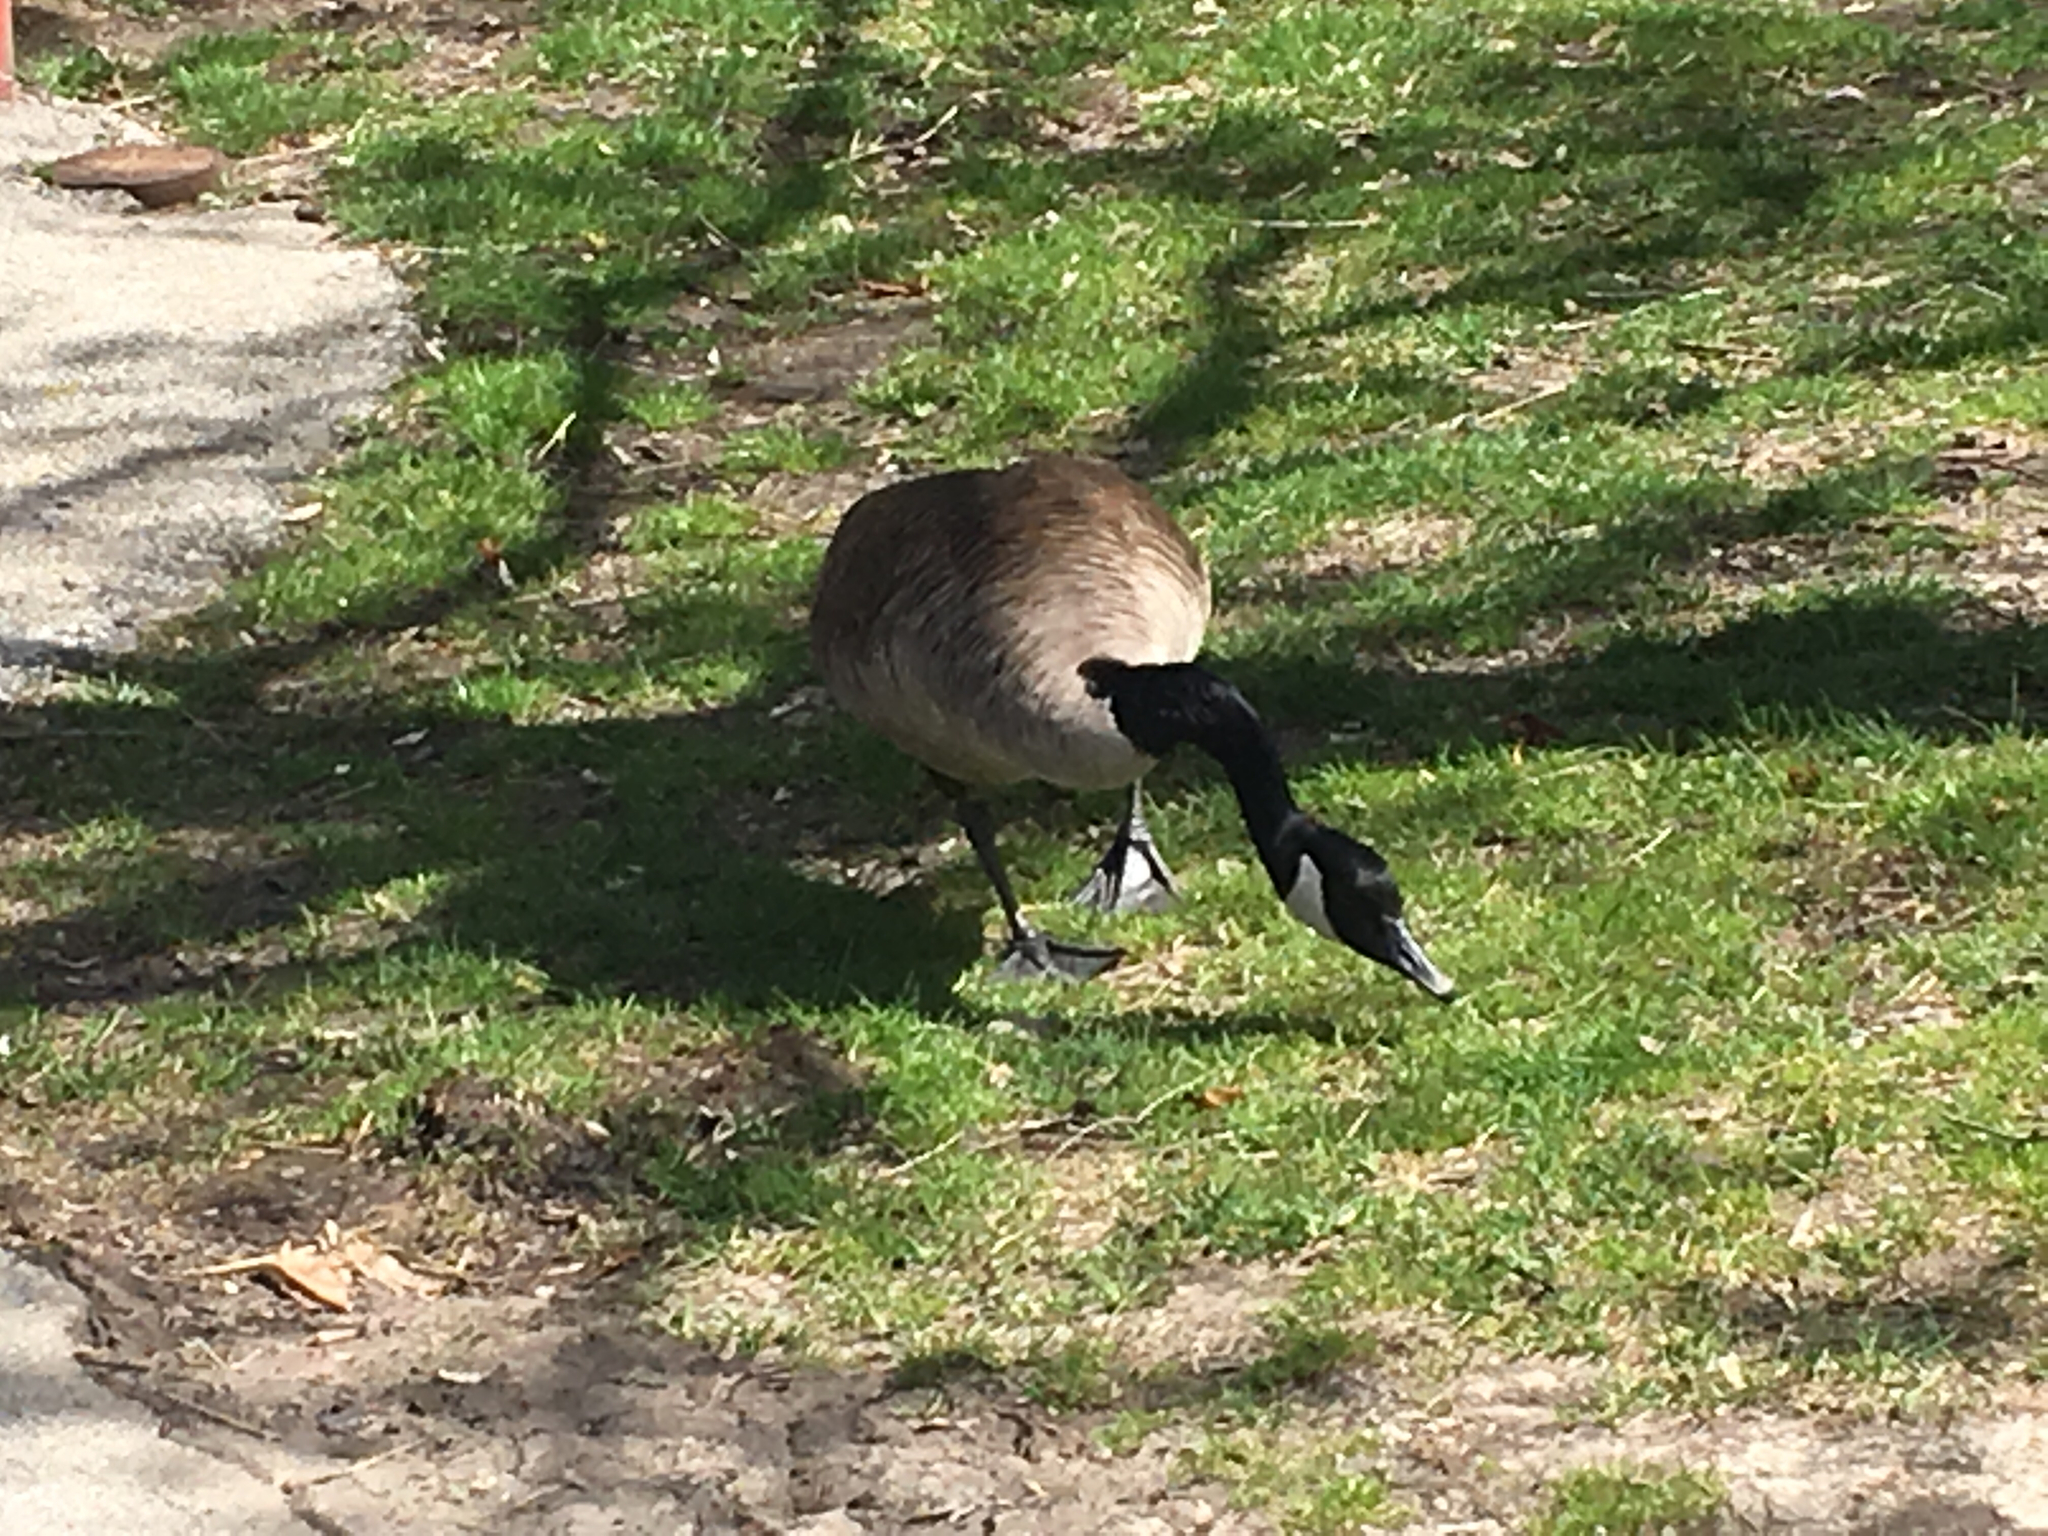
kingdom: Animalia
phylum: Chordata
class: Aves
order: Anseriformes
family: Anatidae
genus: Branta
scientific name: Branta canadensis
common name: Canada goose
